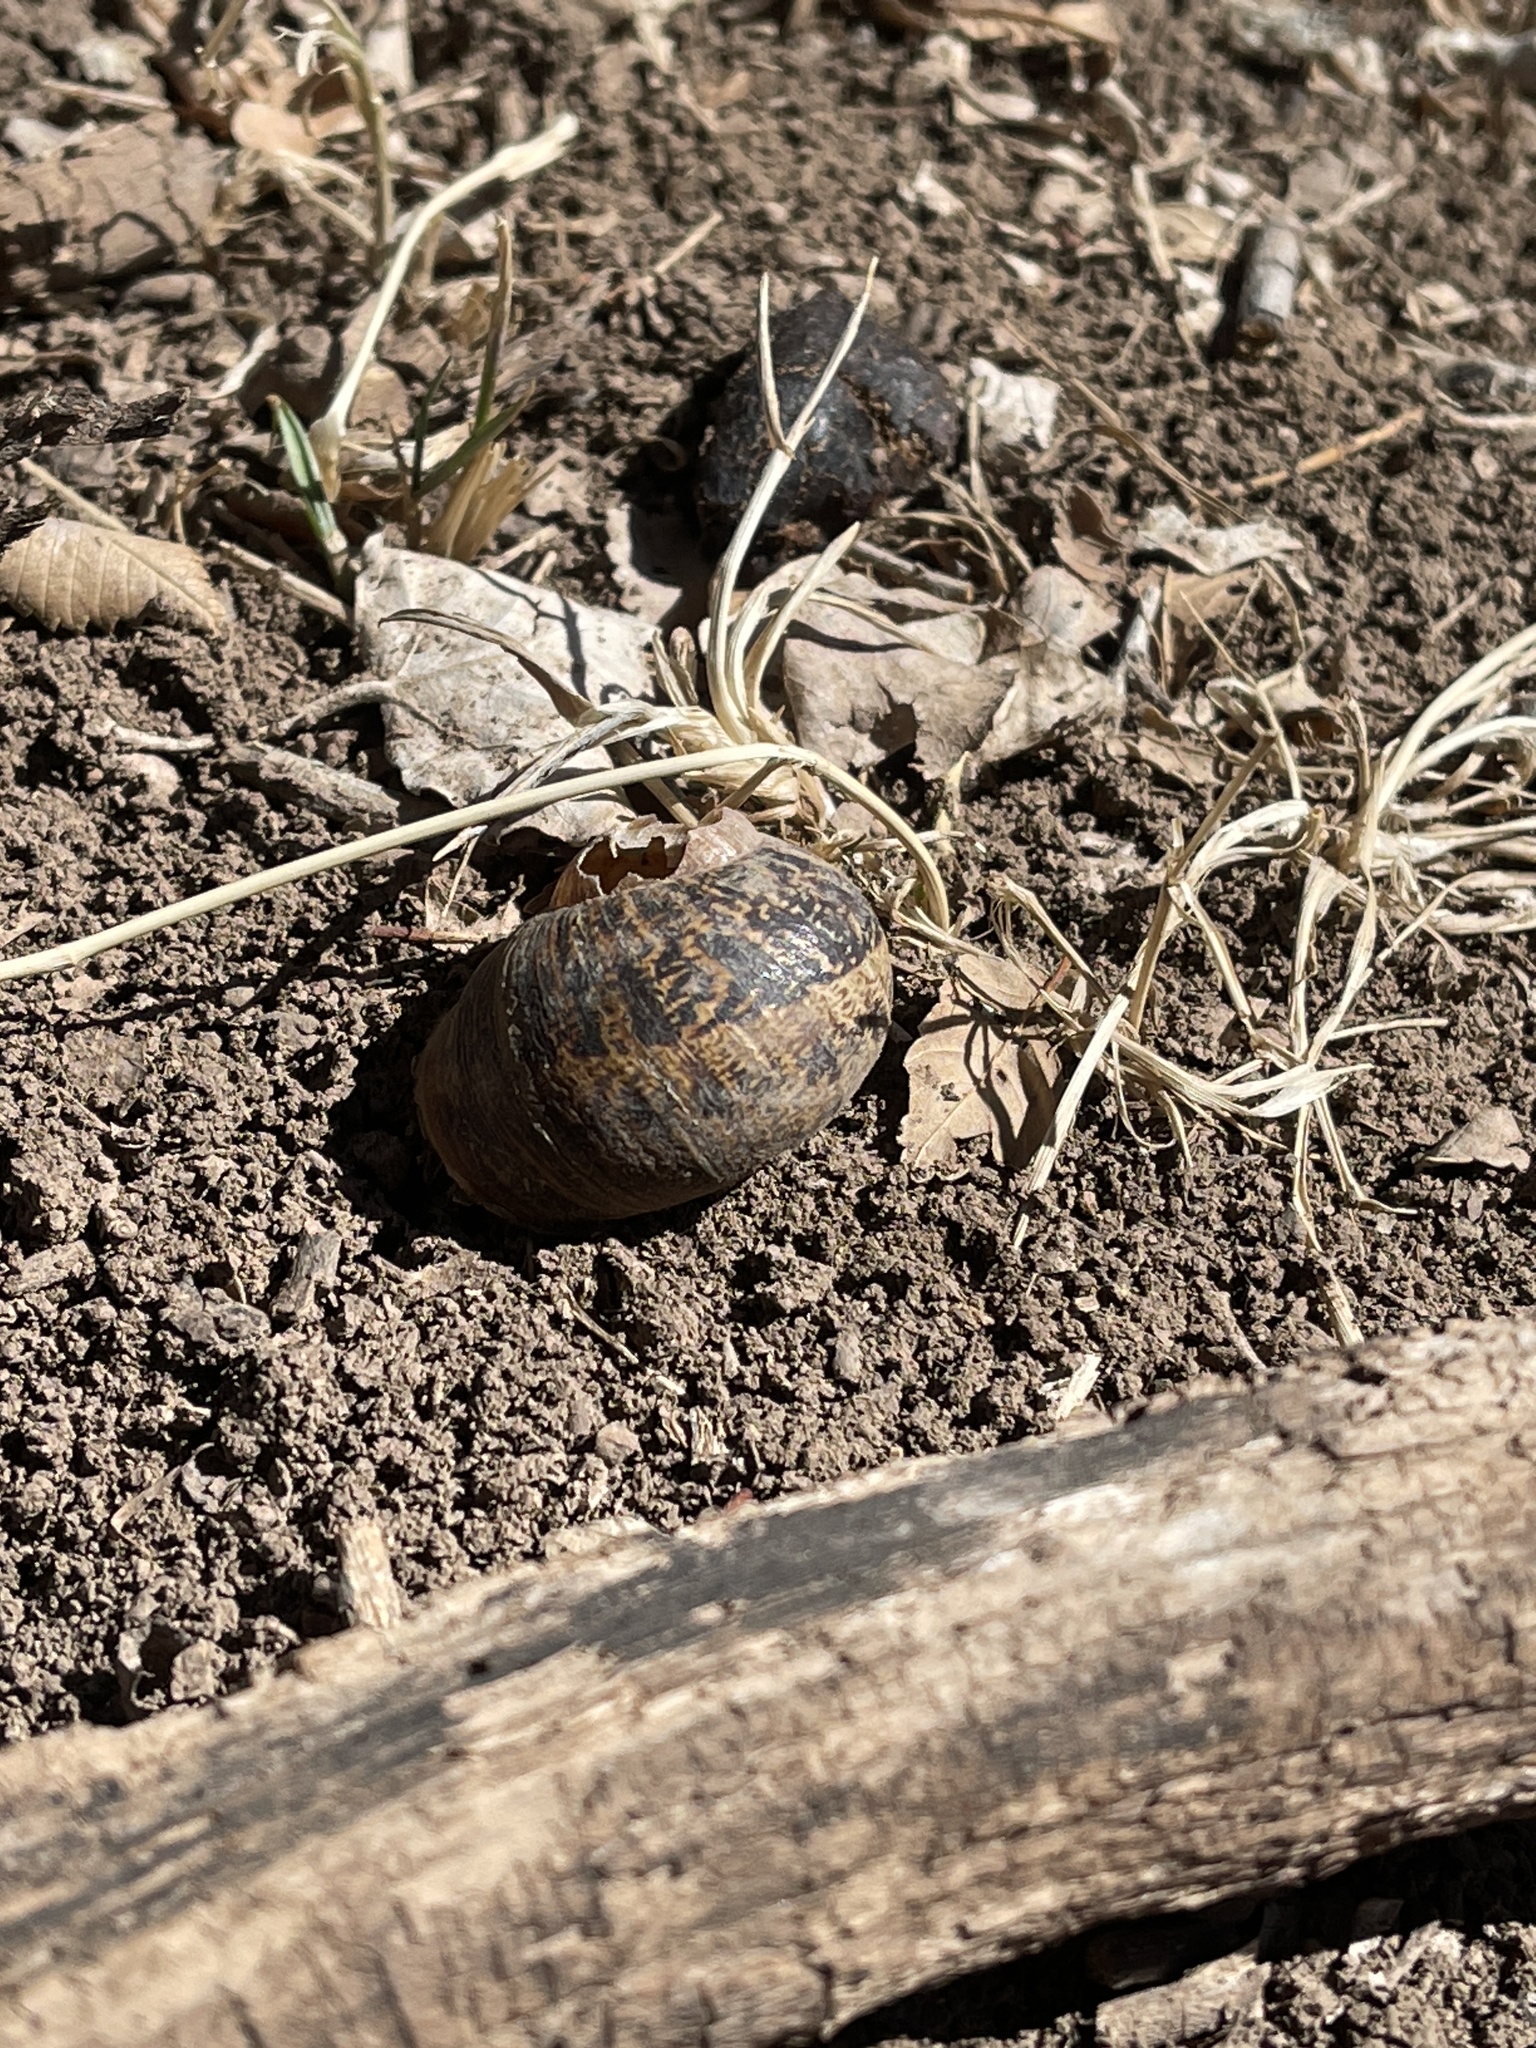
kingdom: Animalia
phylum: Mollusca
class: Gastropoda
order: Stylommatophora
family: Helicidae
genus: Cornu
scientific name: Cornu aspersum
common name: Brown garden snail
